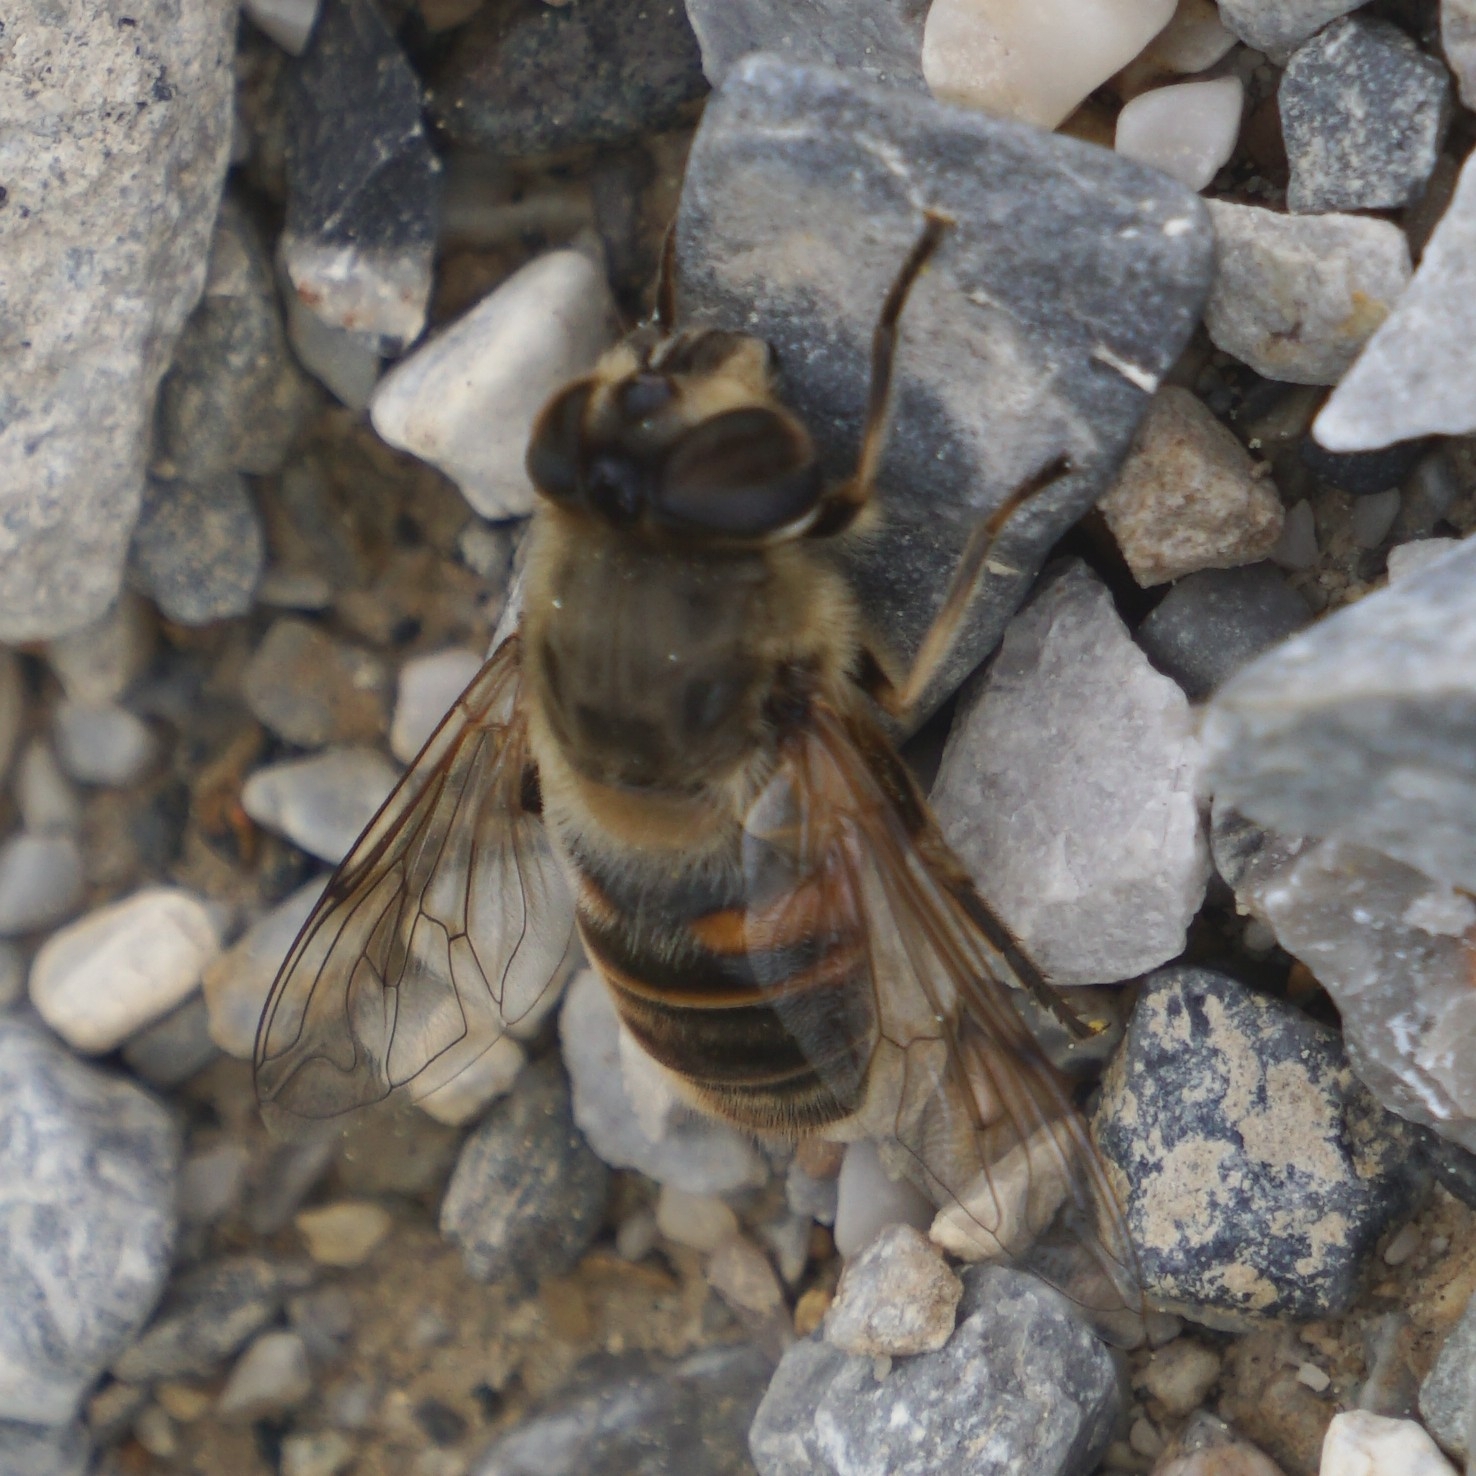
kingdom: Animalia
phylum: Arthropoda
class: Insecta
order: Diptera
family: Syrphidae
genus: Eristalis
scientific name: Eristalis tenax
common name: Drone fly
